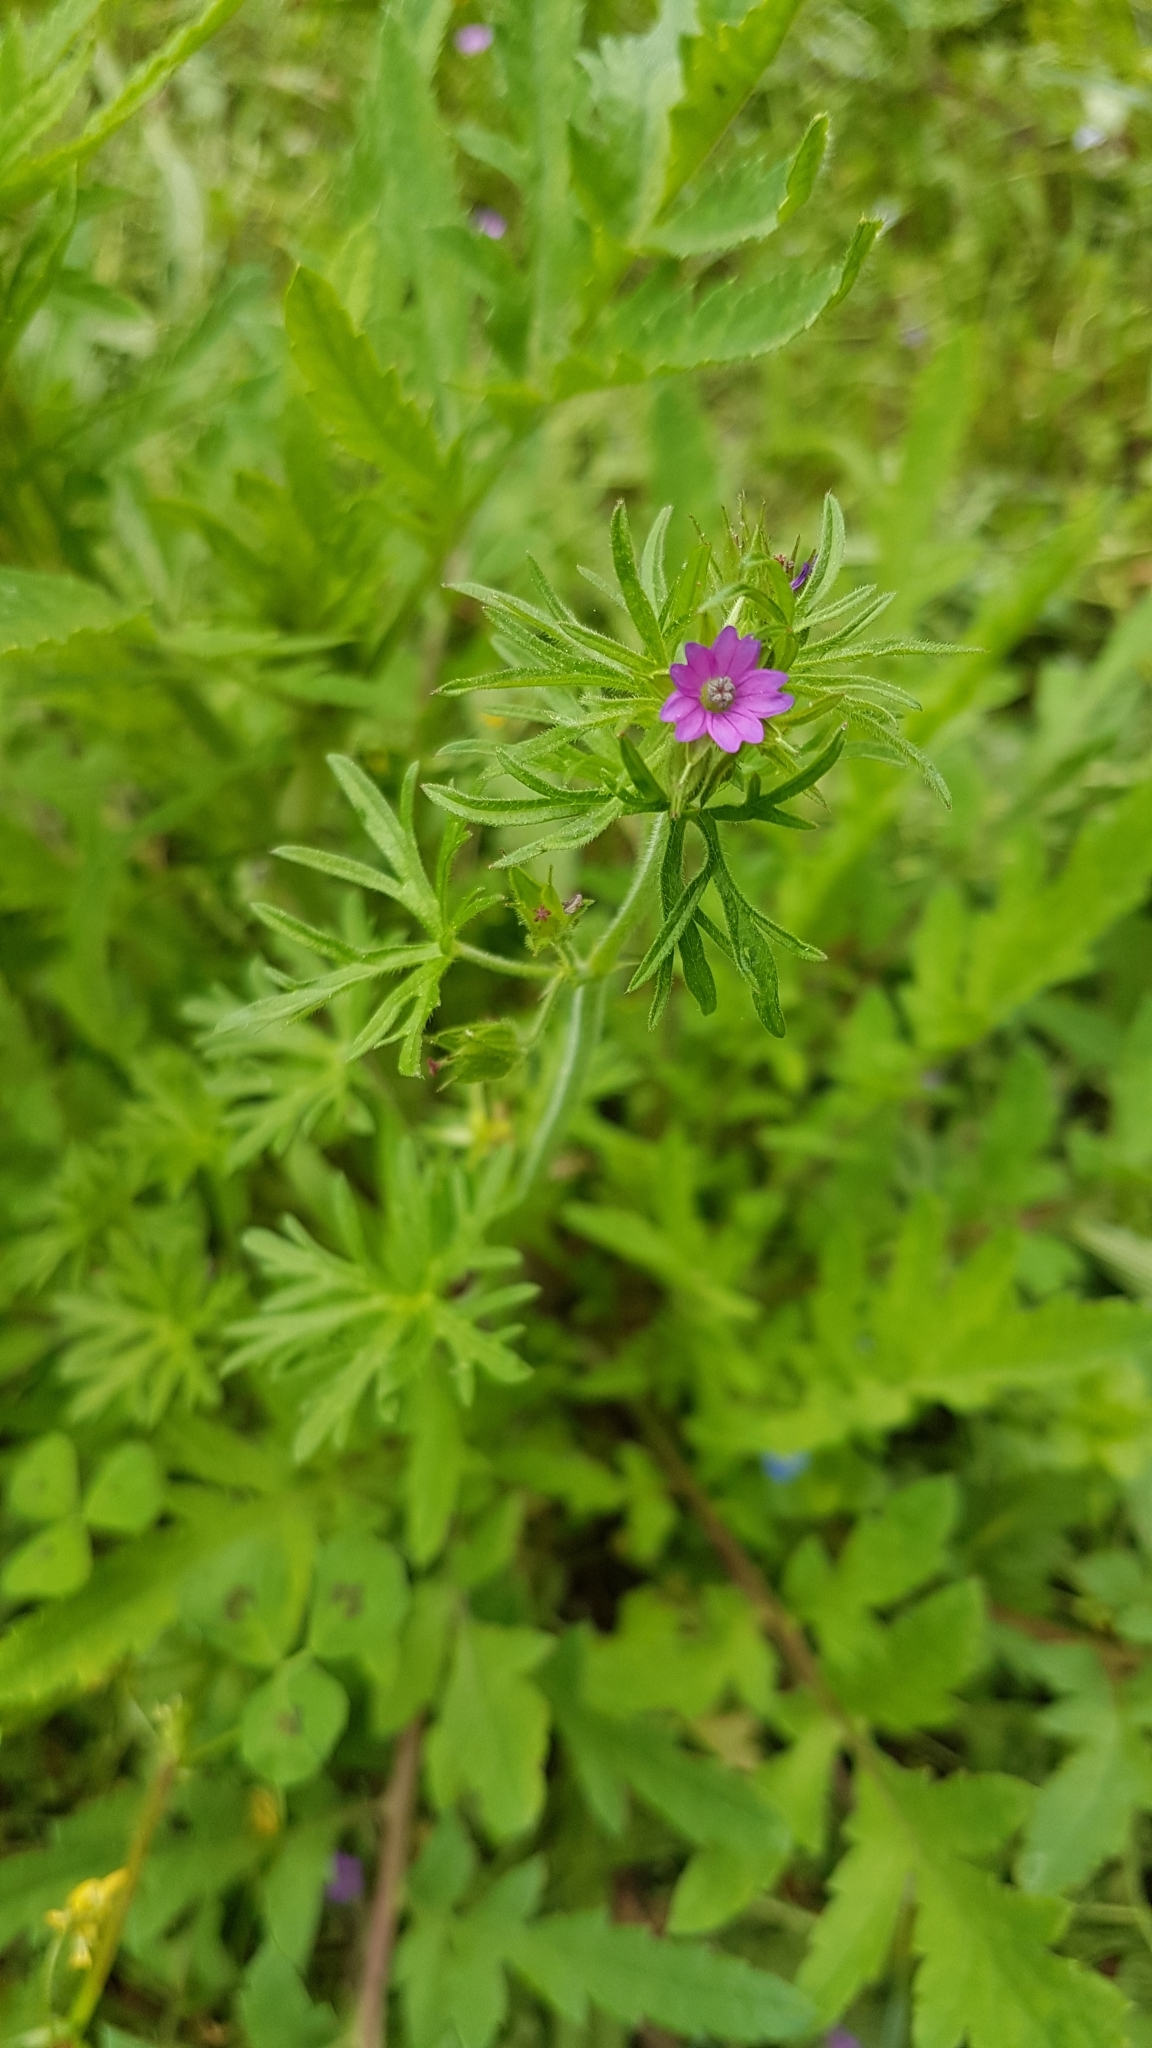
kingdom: Plantae
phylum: Tracheophyta
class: Magnoliopsida
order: Geraniales
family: Geraniaceae
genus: Geranium
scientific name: Geranium dissectum
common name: Cut-leaved crane's-bill
